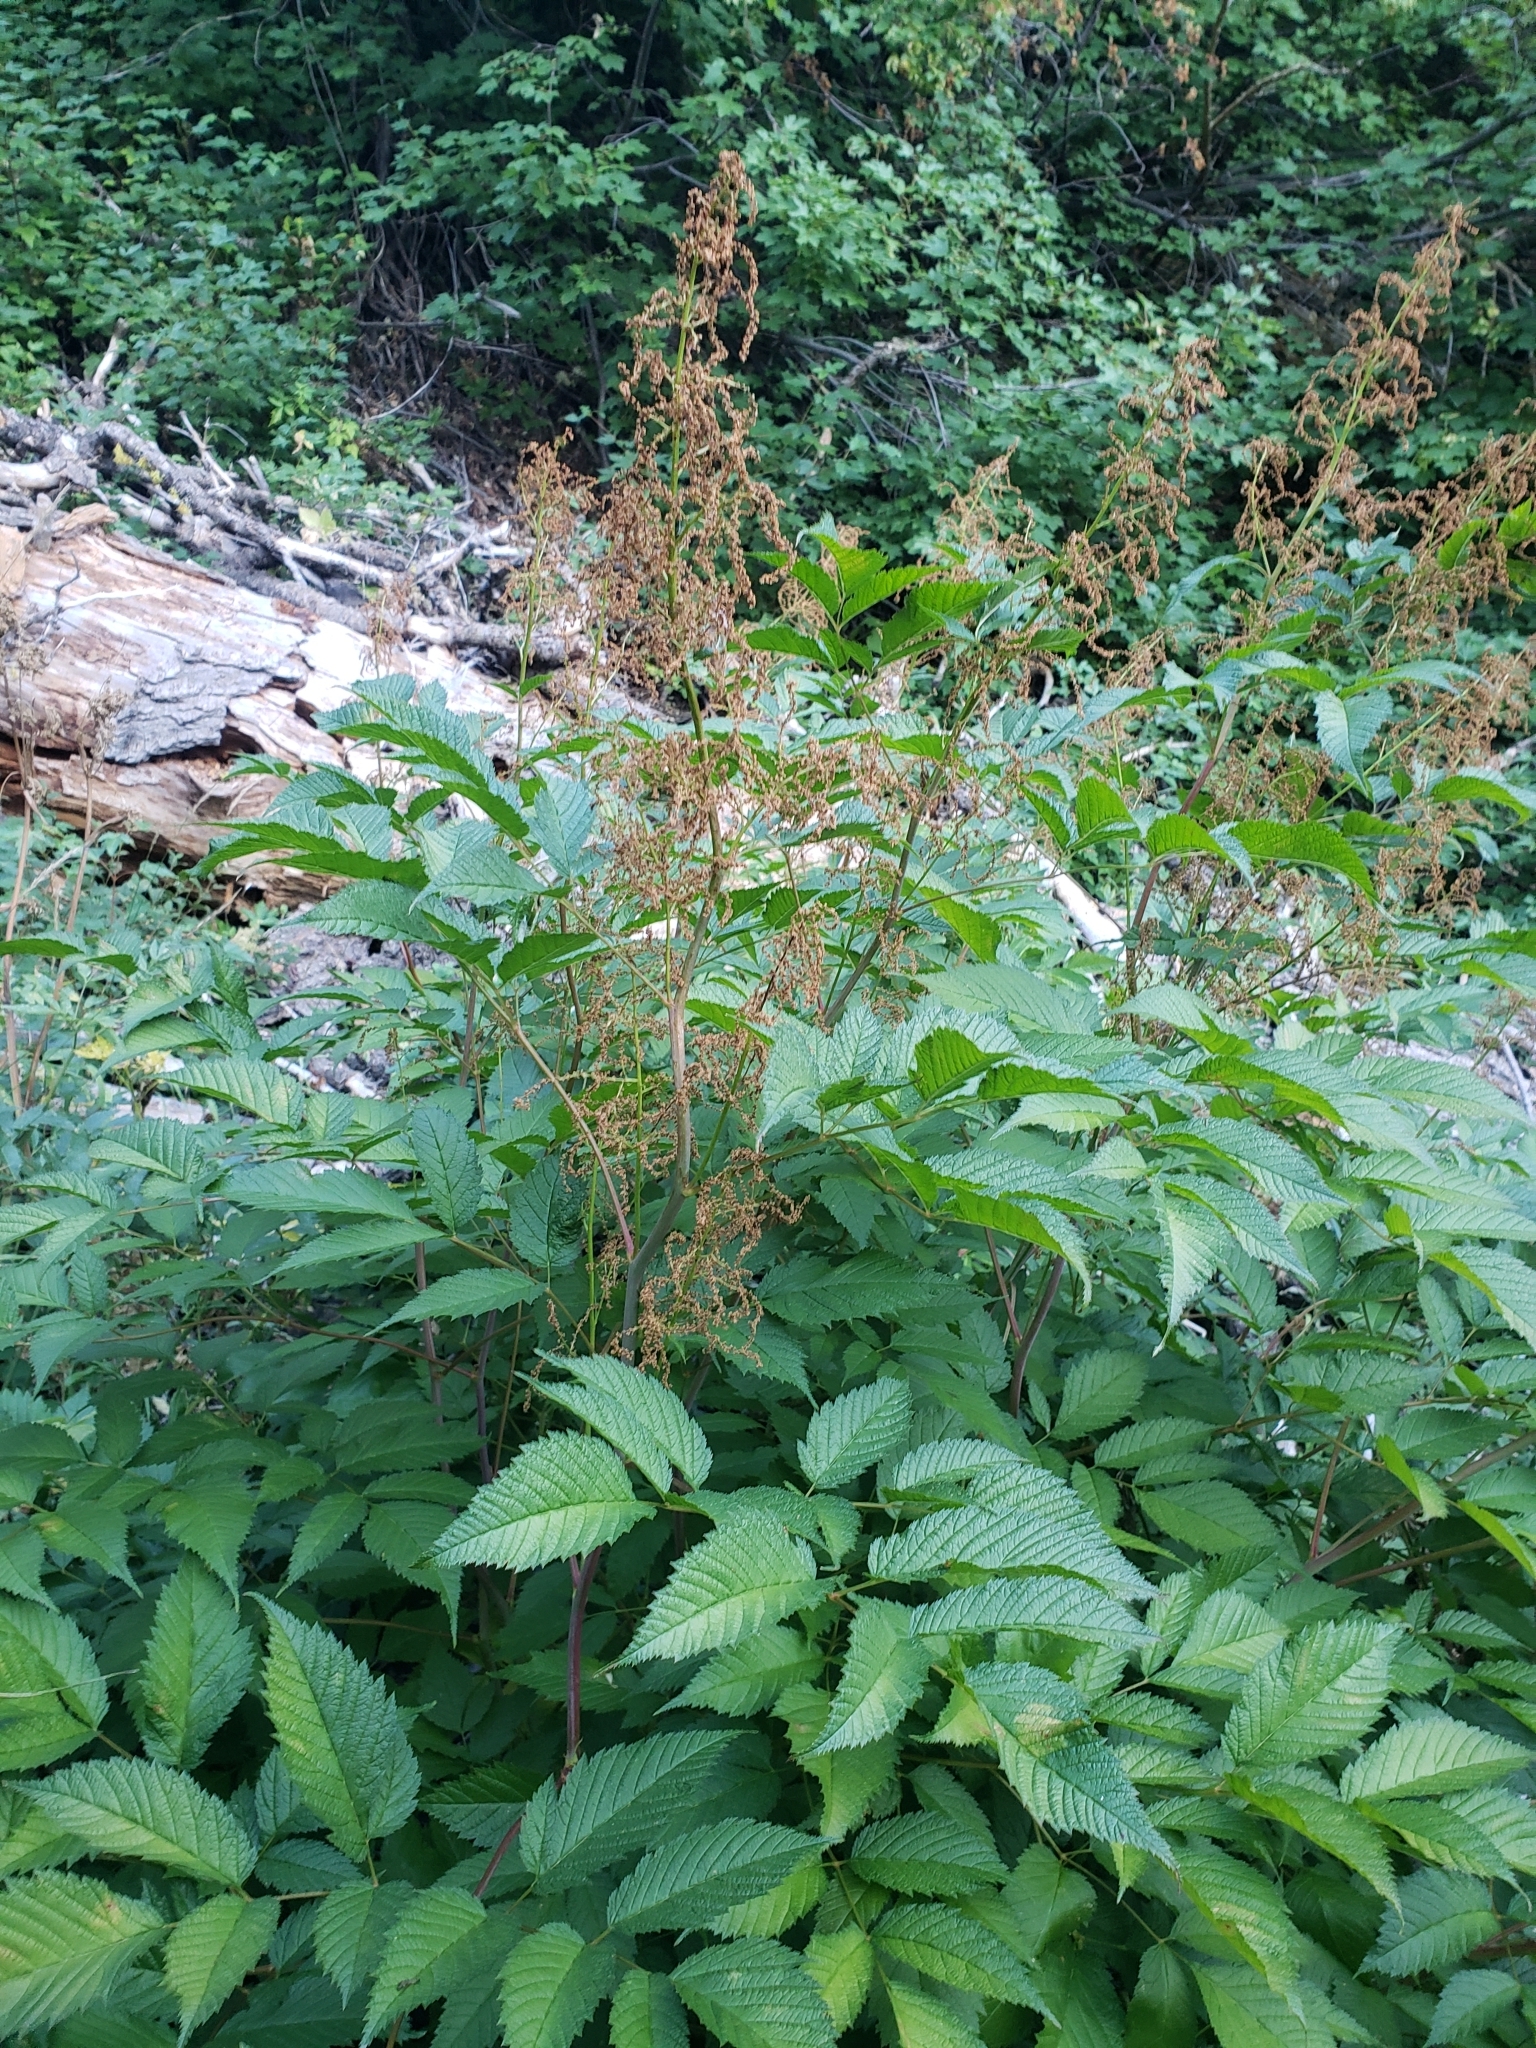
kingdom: Plantae
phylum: Tracheophyta
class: Magnoliopsida
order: Rosales
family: Rosaceae
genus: Aruncus
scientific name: Aruncus dioicus
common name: Buck's-beard
